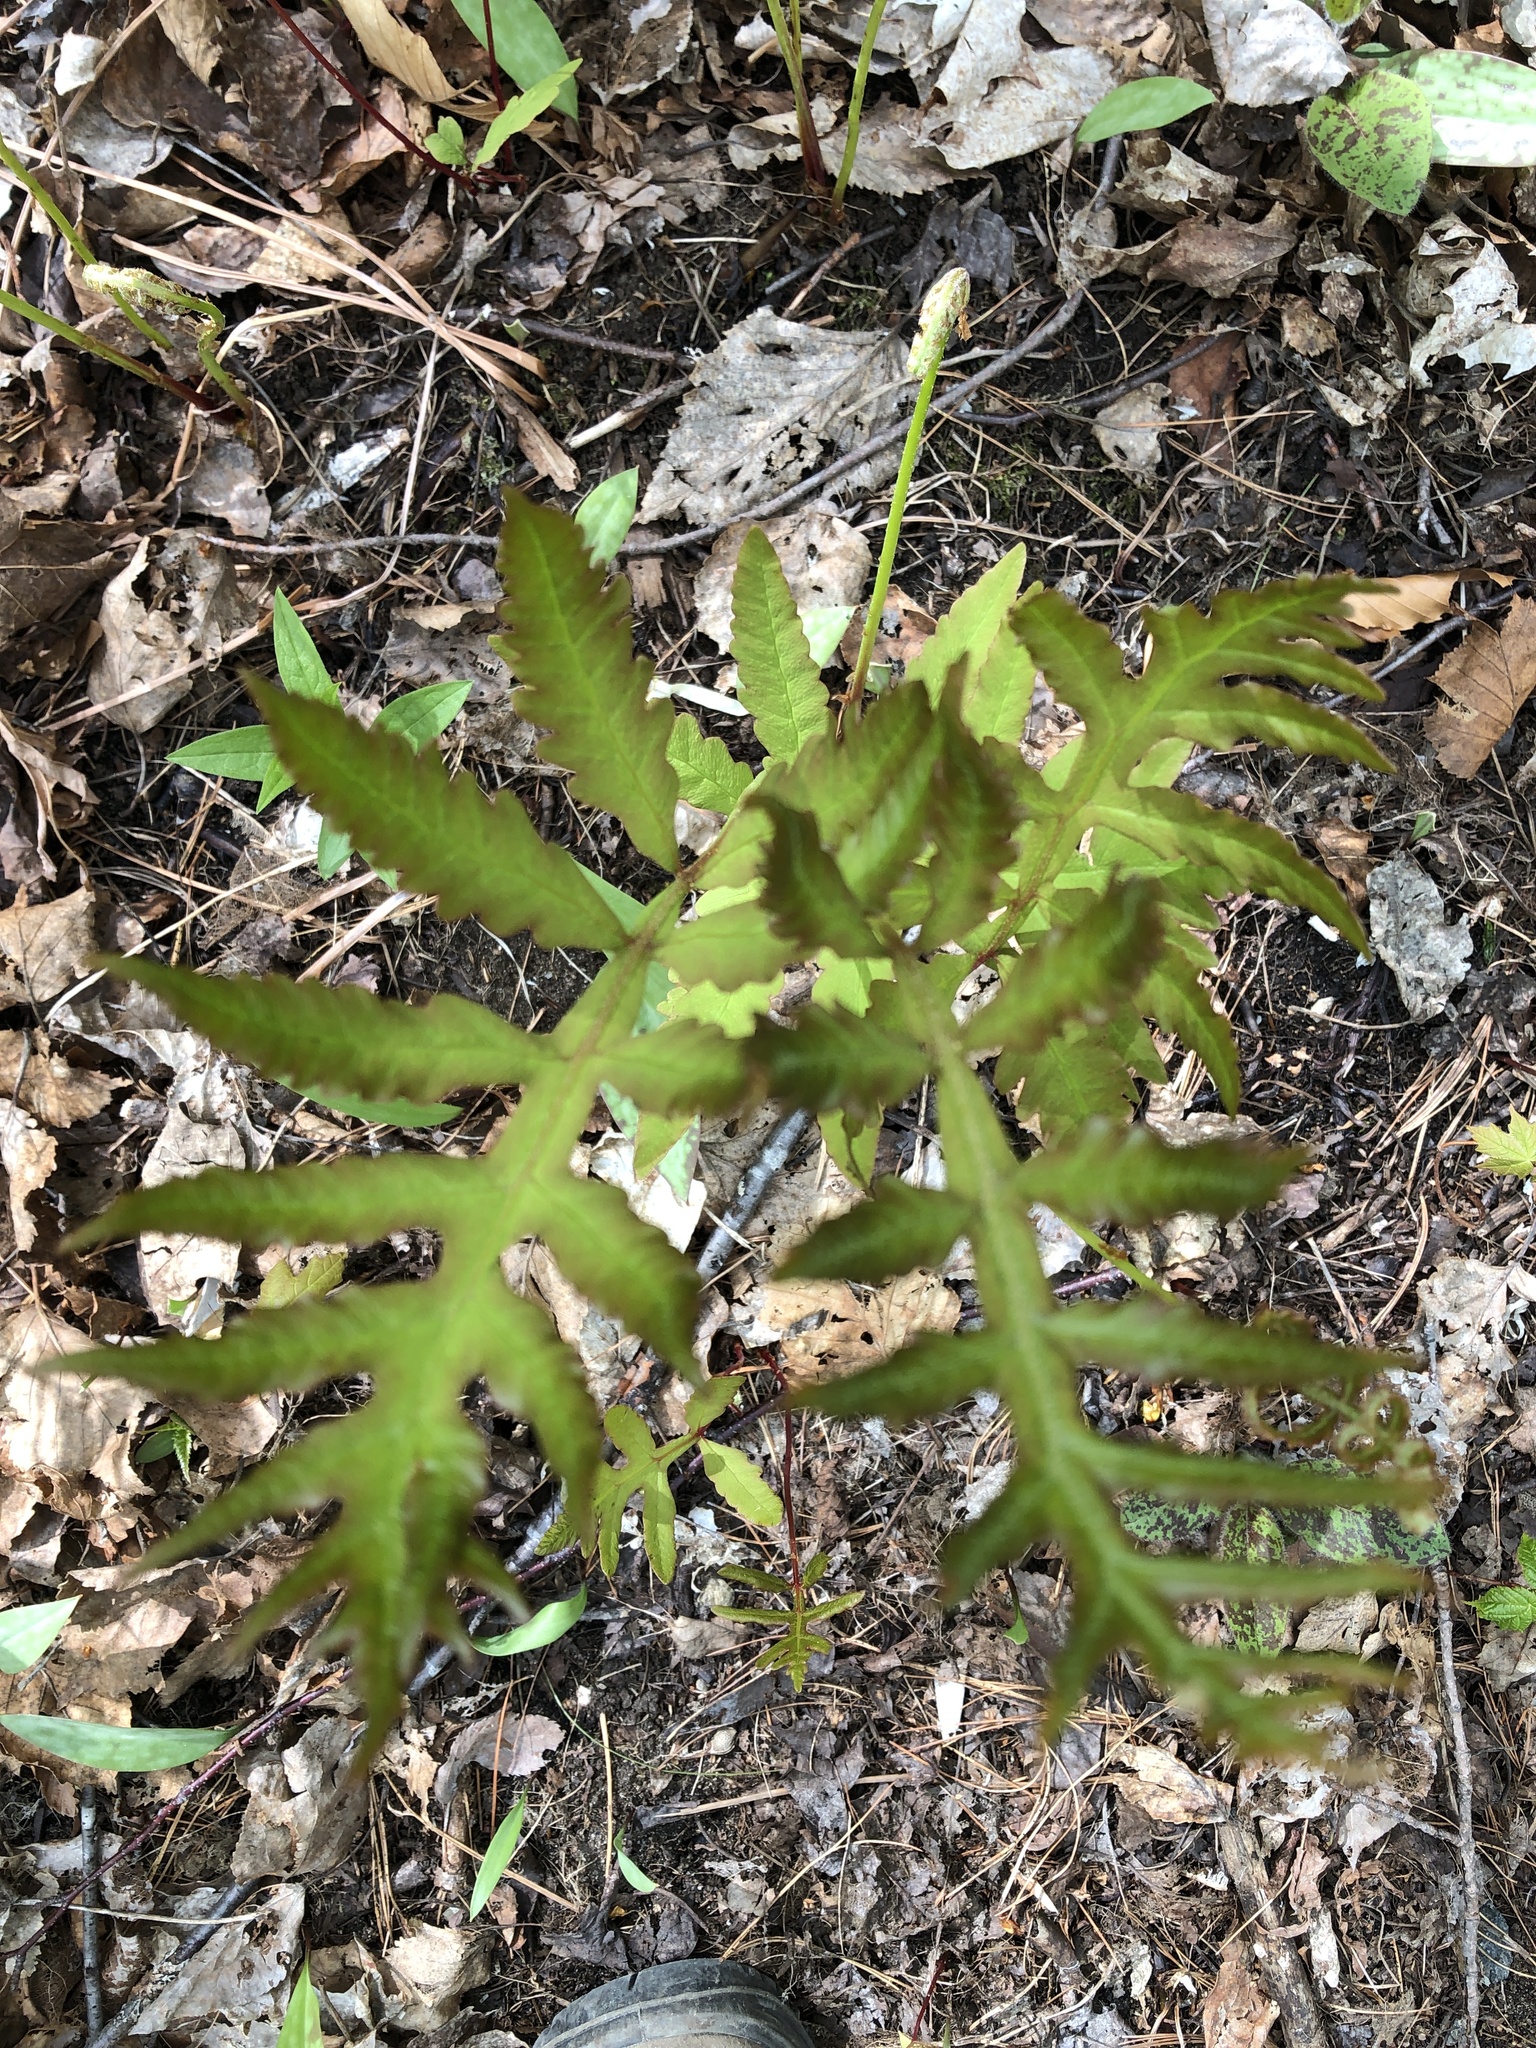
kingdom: Plantae
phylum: Tracheophyta
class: Polypodiopsida
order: Polypodiales
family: Onocleaceae
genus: Onoclea
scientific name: Onoclea sensibilis
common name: Sensitive fern
